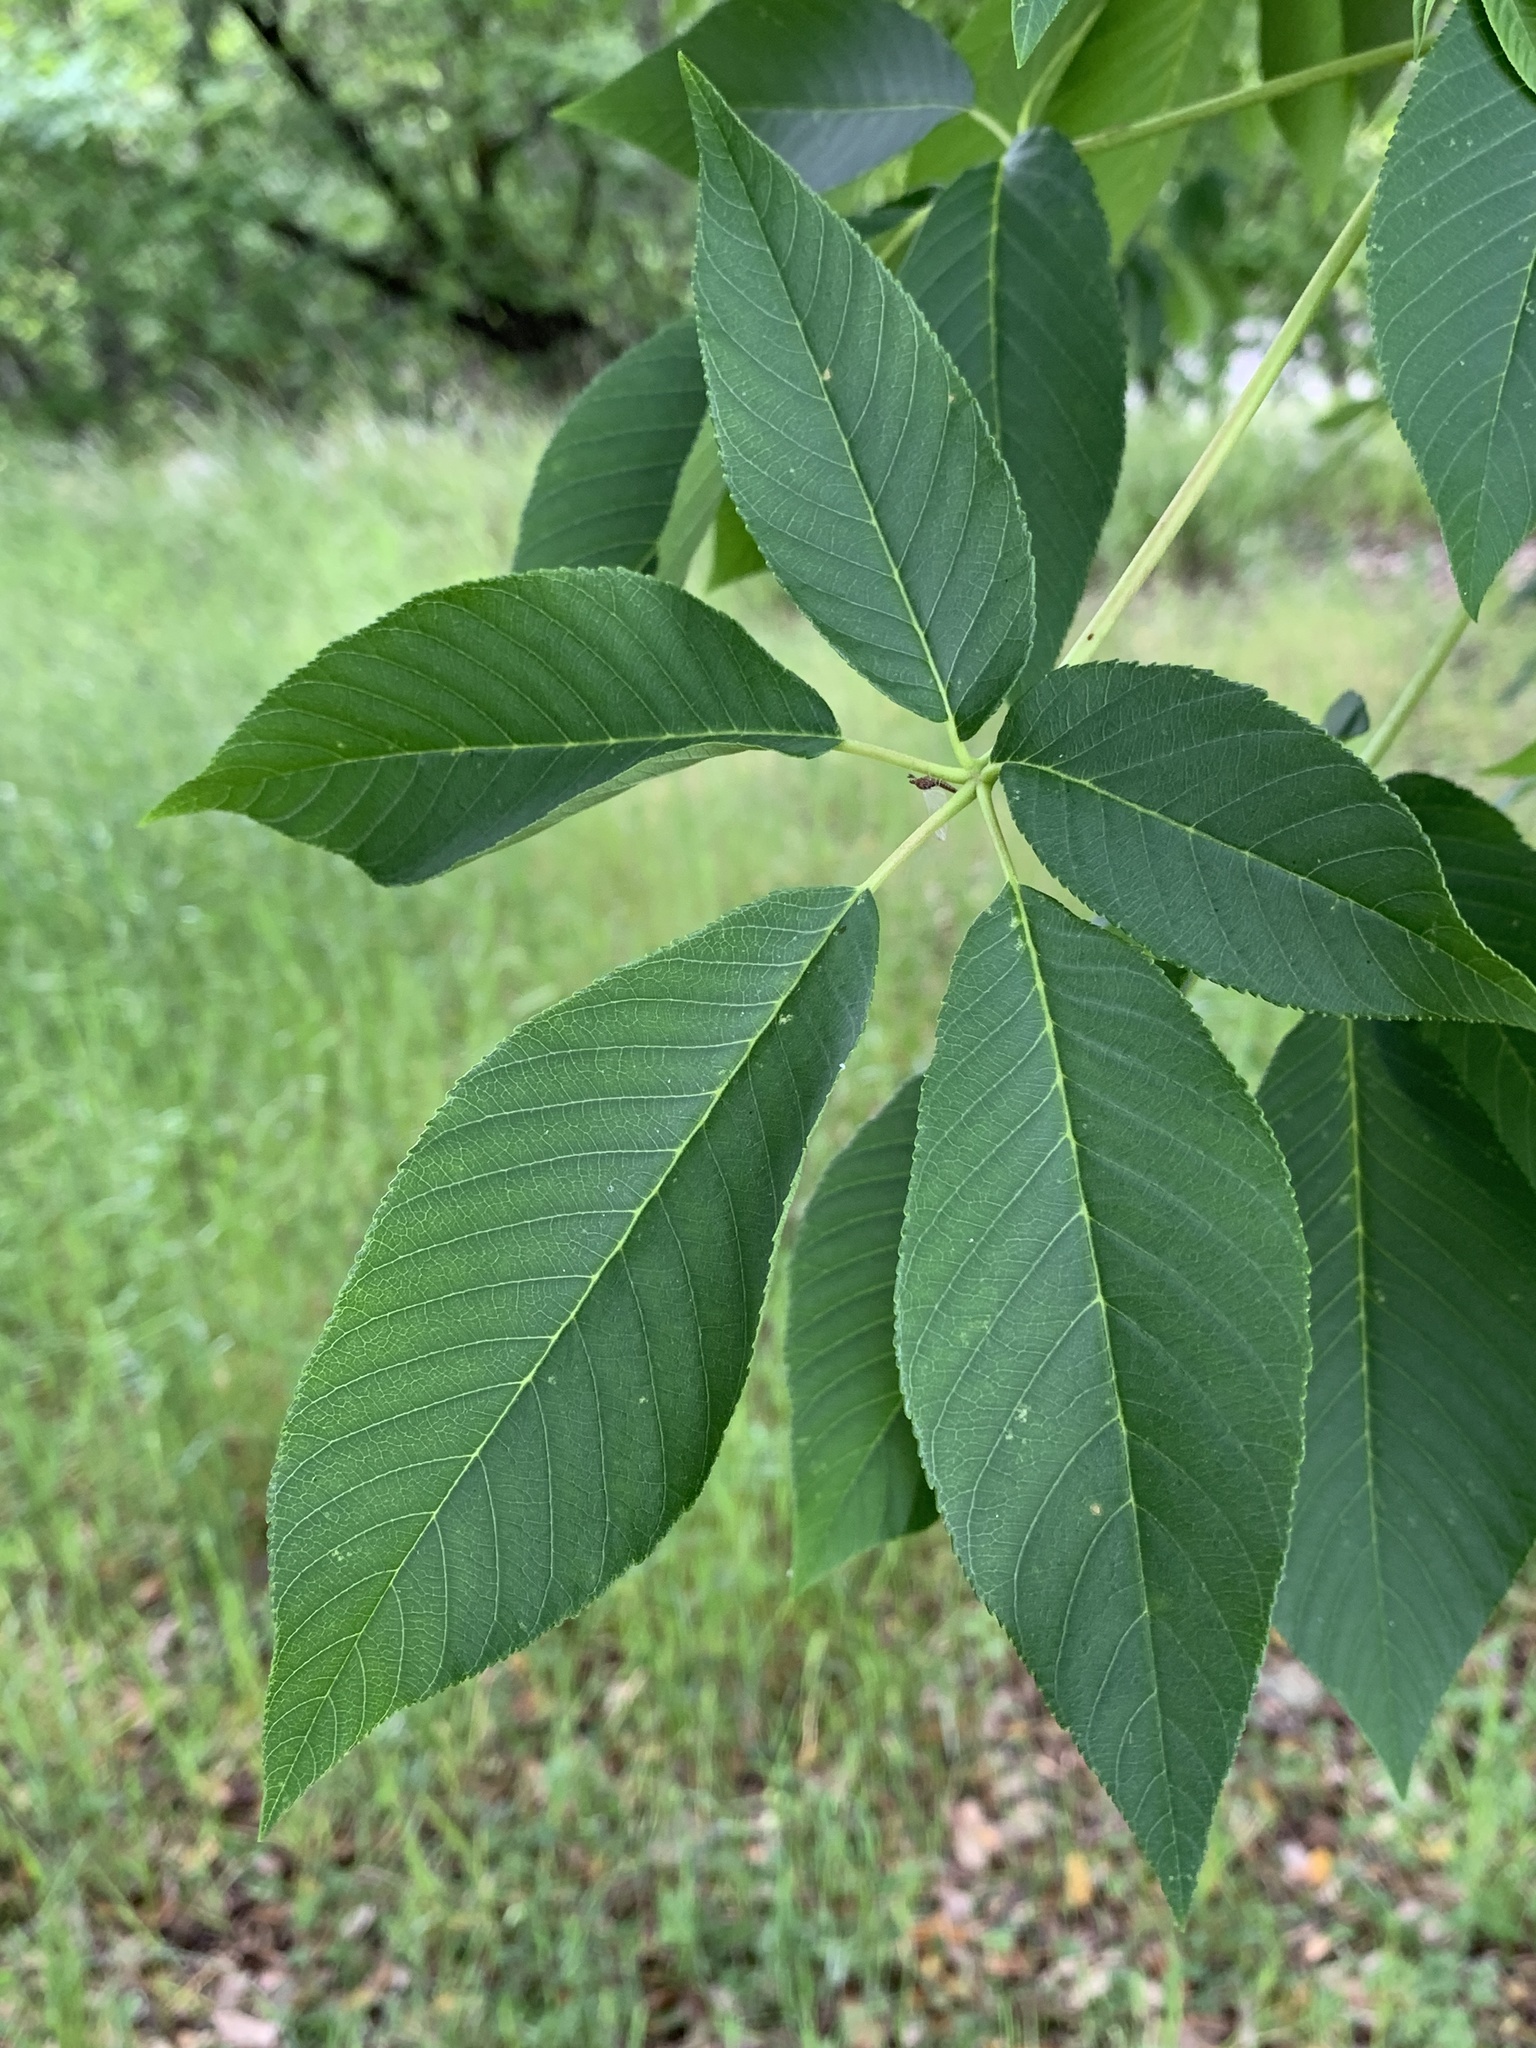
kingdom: Plantae
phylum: Tracheophyta
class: Magnoliopsida
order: Sapindales
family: Sapindaceae
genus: Aesculus
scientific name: Aesculus californica
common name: California buckeye
